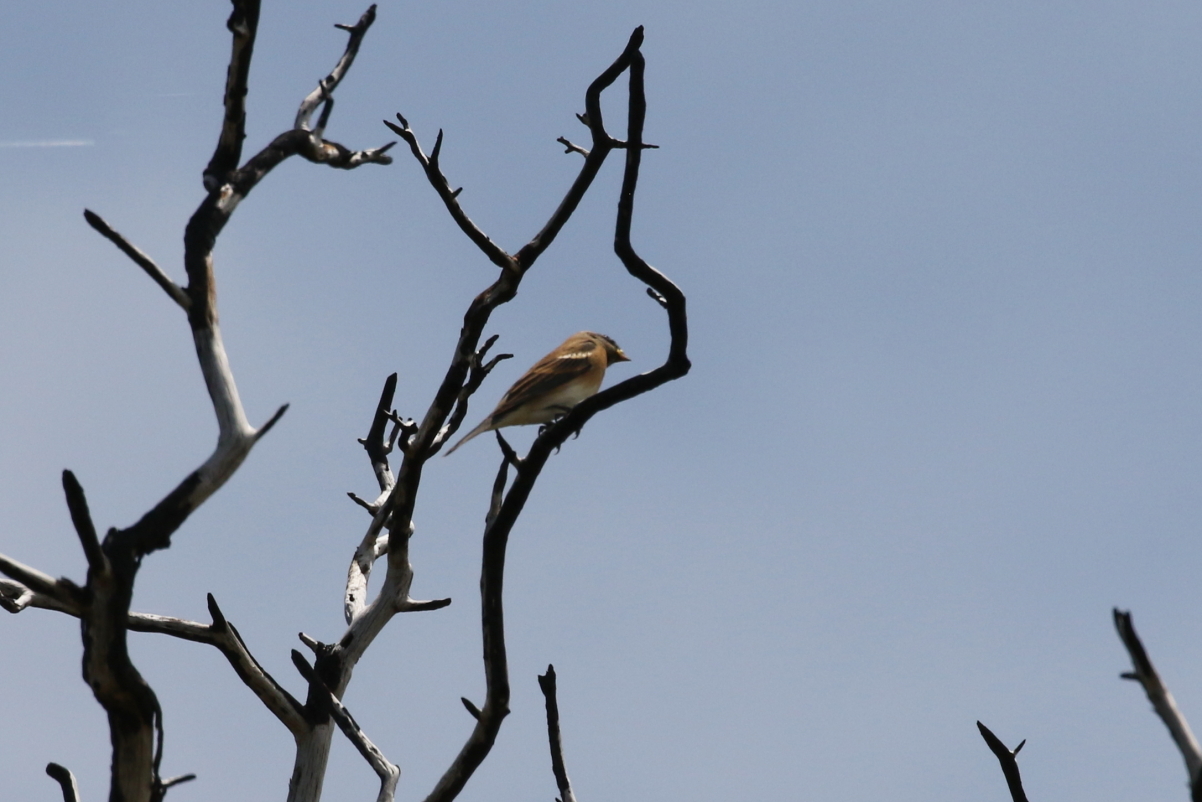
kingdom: Animalia
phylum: Chordata
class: Aves
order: Passeriformes
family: Cardinalidae
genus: Passerina
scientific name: Passerina amoena
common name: Lazuli bunting
